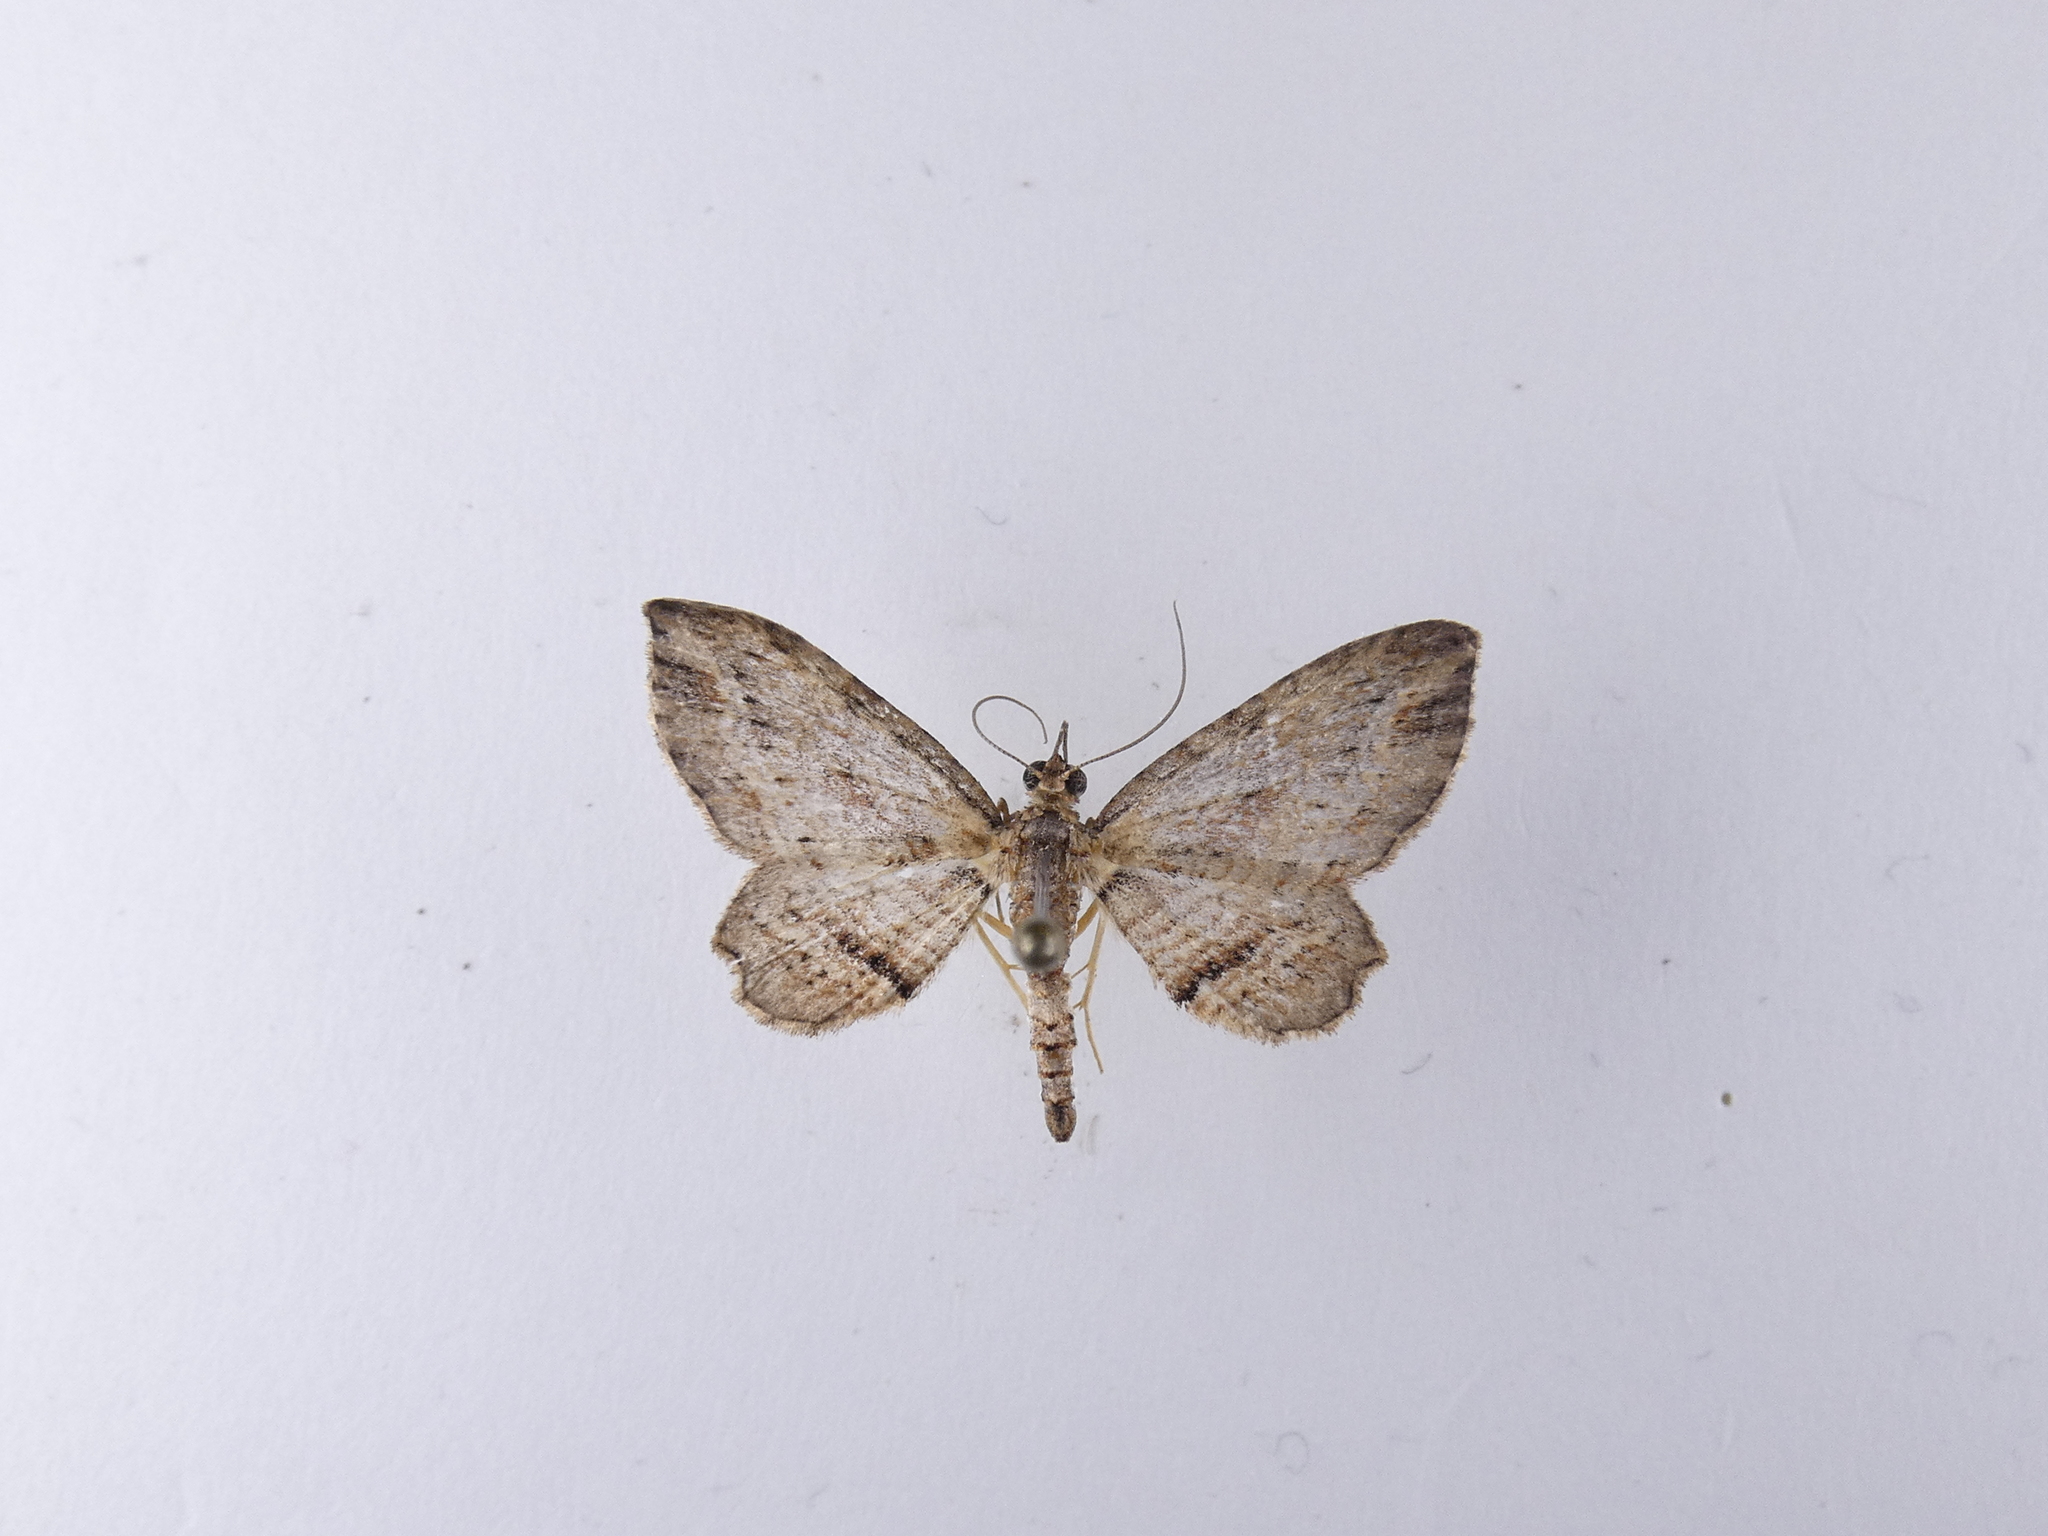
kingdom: Animalia
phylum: Arthropoda
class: Insecta
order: Lepidoptera
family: Geometridae
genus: Chloroclystis
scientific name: Chloroclystis filata
